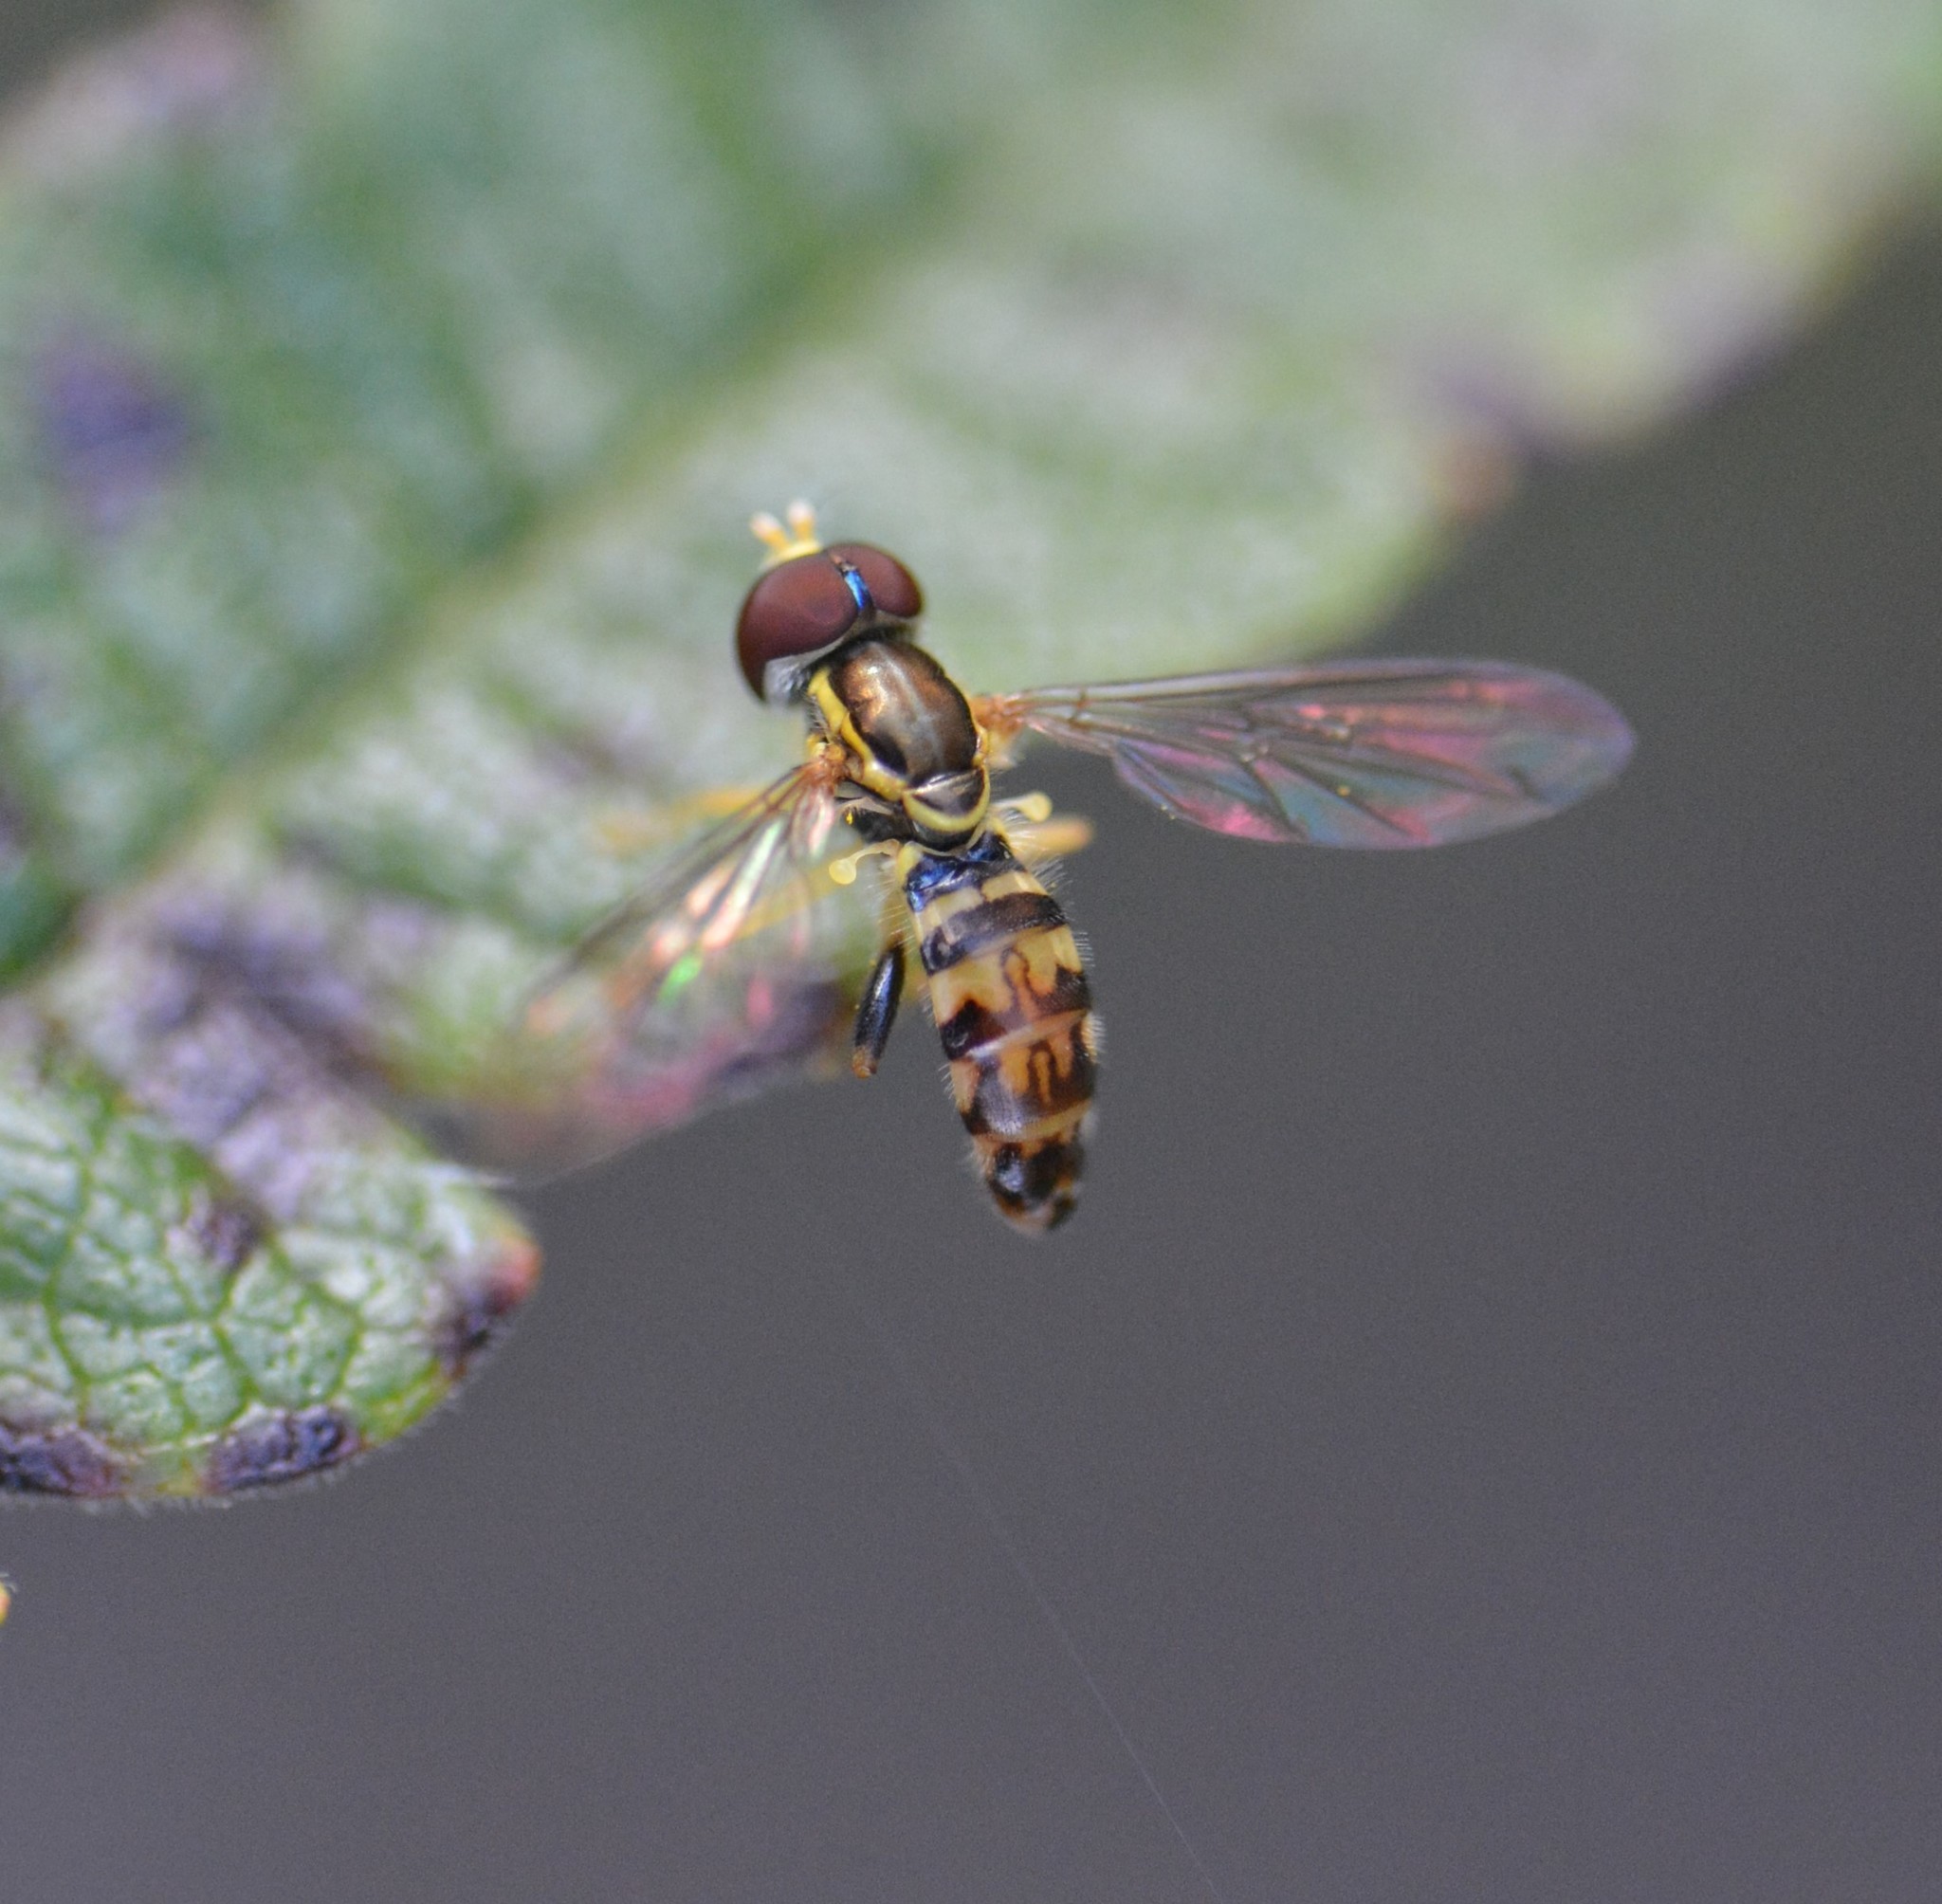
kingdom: Animalia
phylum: Arthropoda
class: Insecta
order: Diptera
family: Syrphidae
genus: Toxomerus
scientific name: Toxomerus geminatus
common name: Eastern calligrapher
